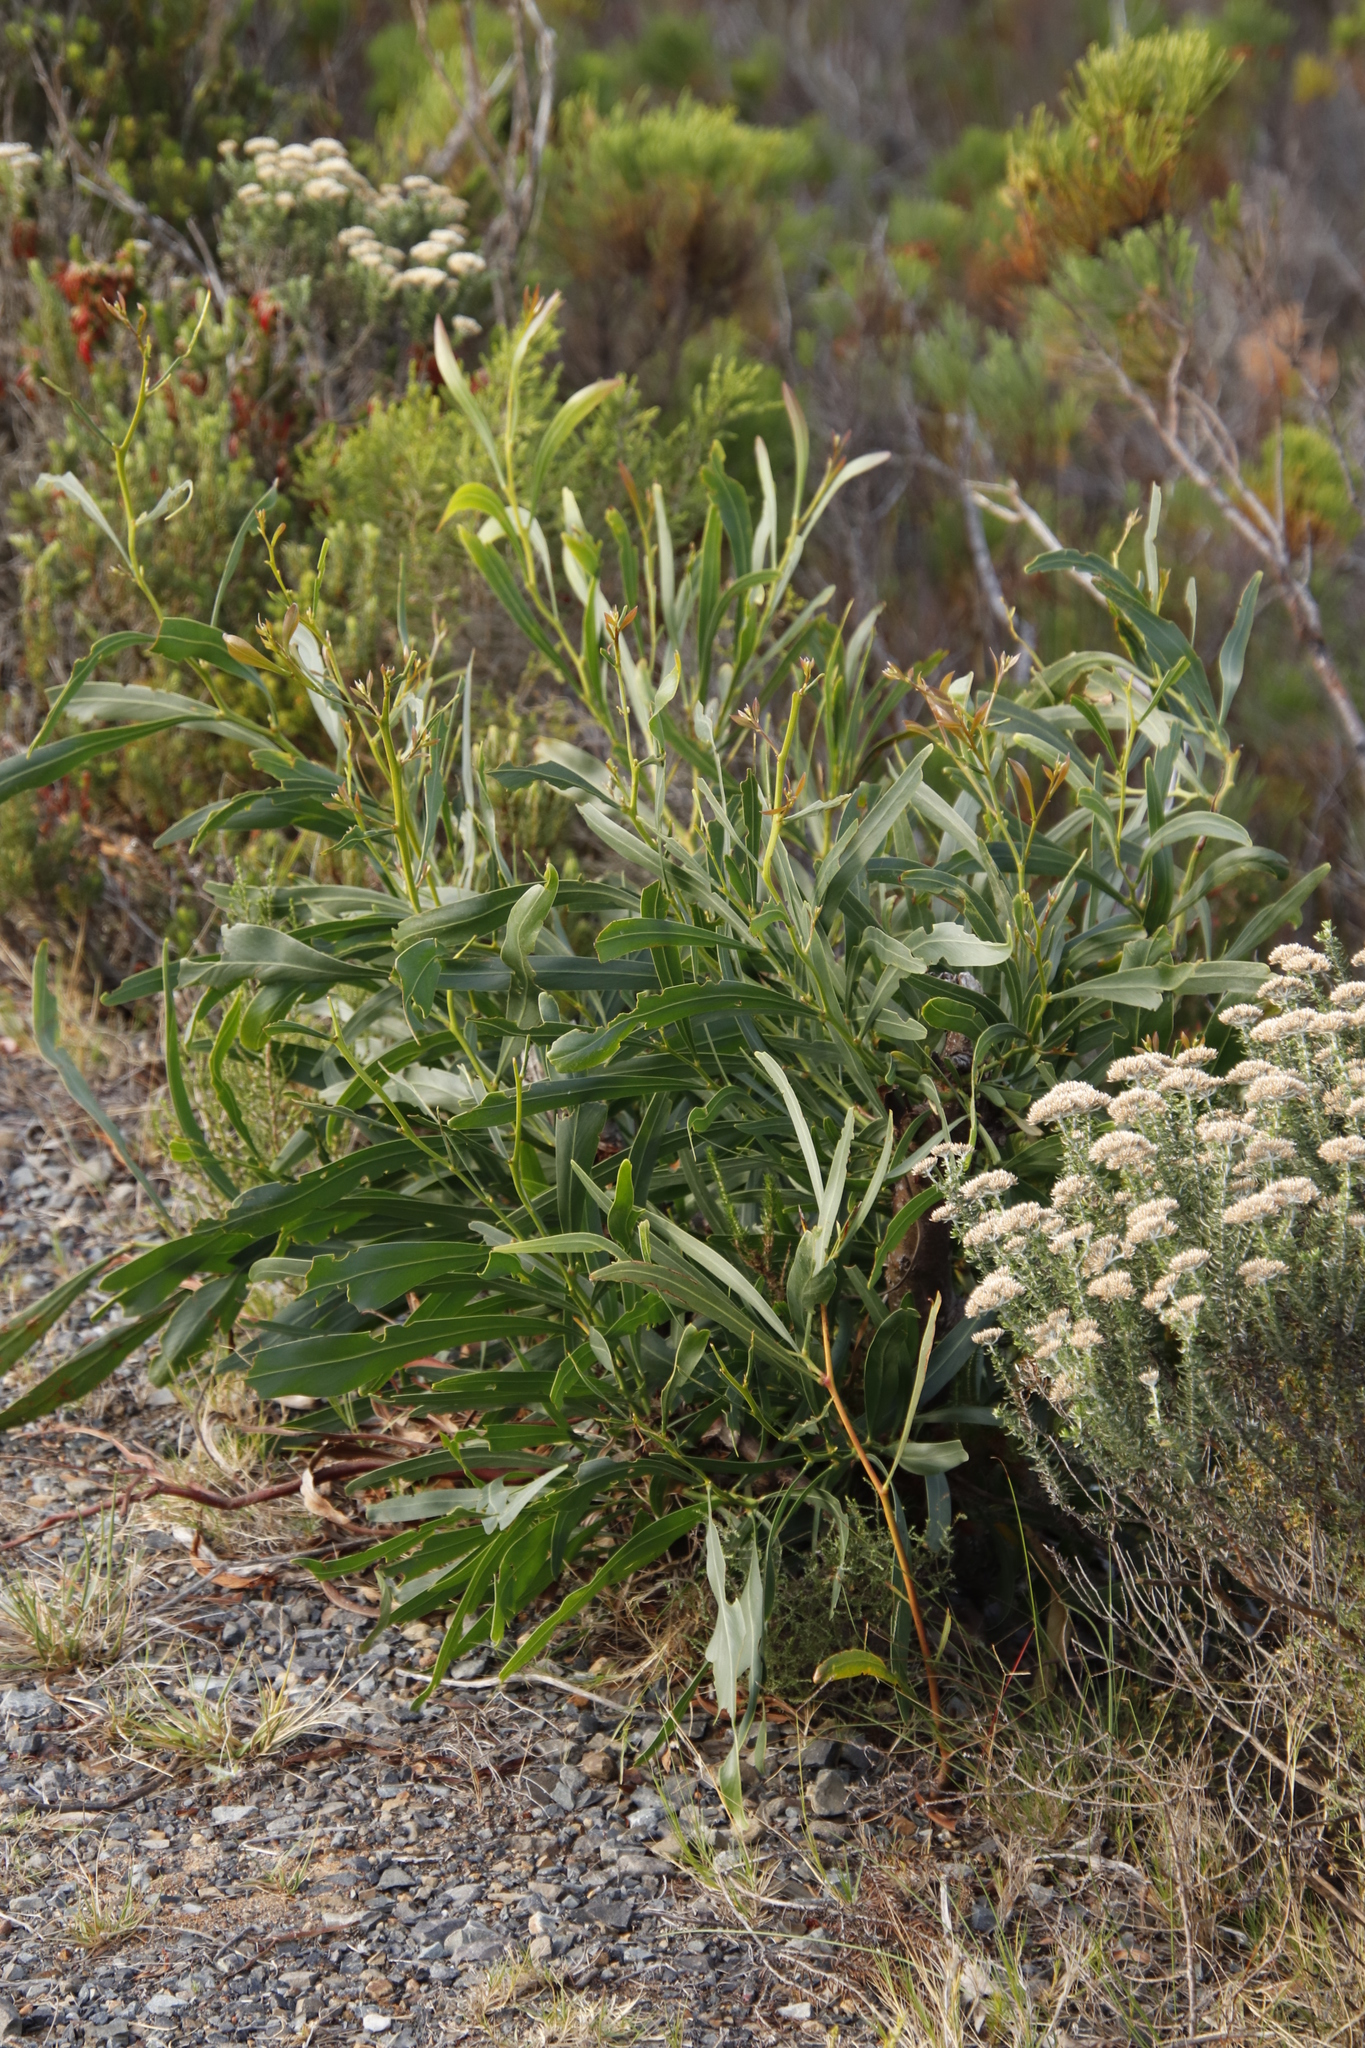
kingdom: Plantae
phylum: Tracheophyta
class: Magnoliopsida
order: Fabales
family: Fabaceae
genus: Acacia
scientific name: Acacia saligna
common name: Orange wattle
